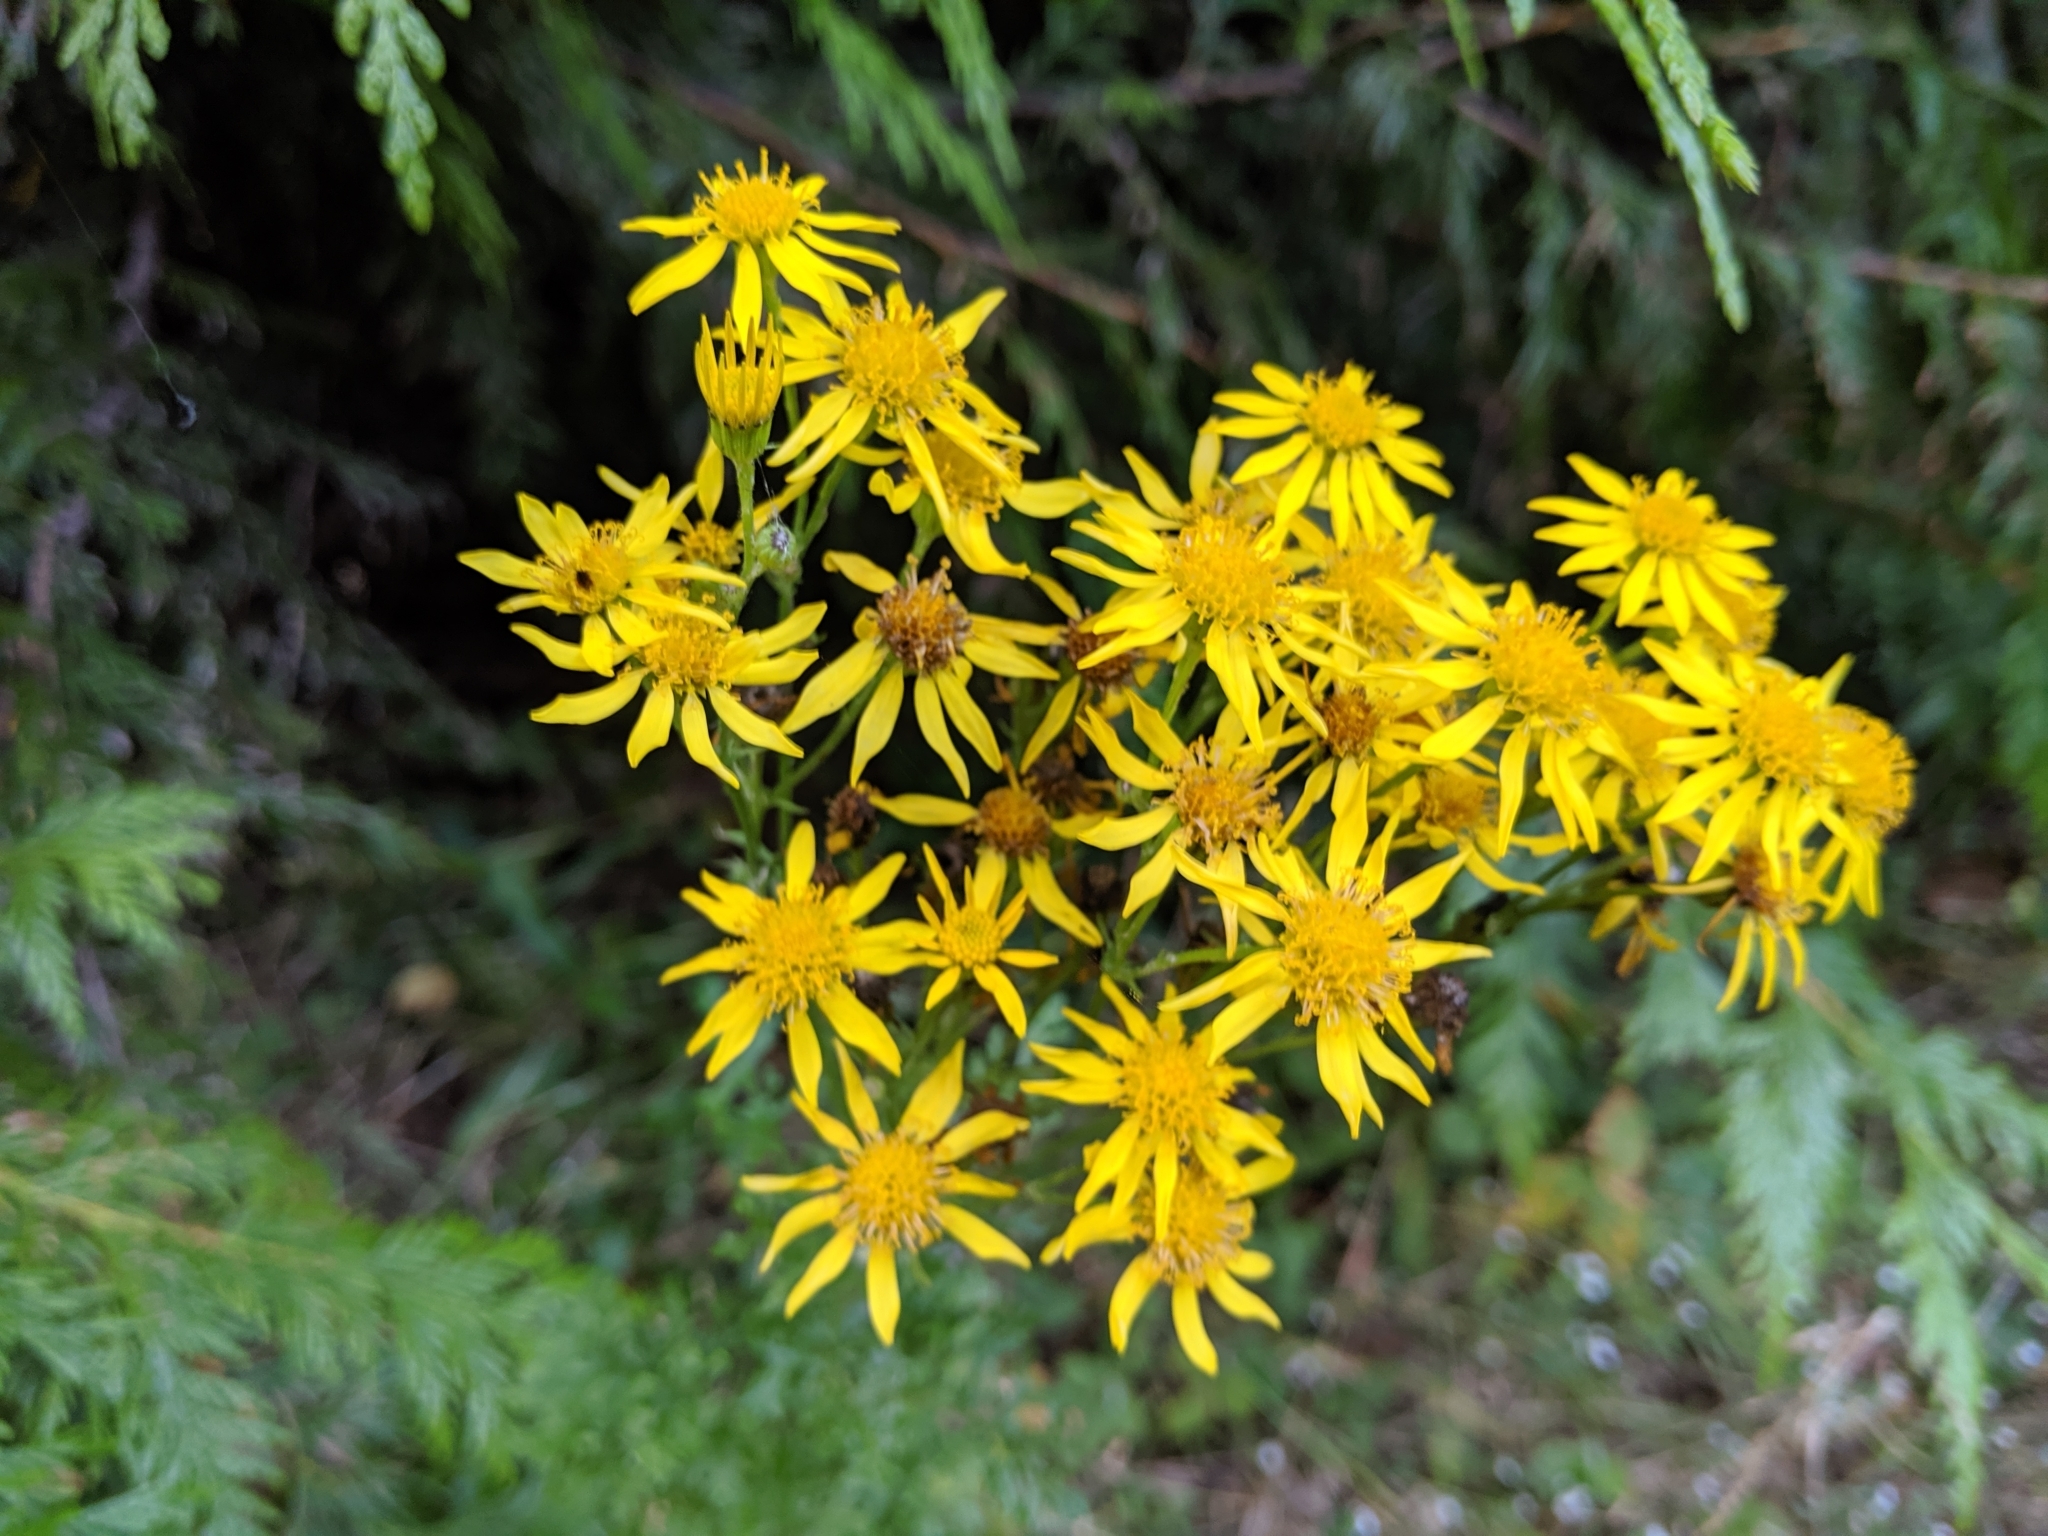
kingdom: Plantae
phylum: Tracheophyta
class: Magnoliopsida
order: Asterales
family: Asteraceae
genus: Jacobaea
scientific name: Jacobaea vulgaris
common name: Stinking willie
